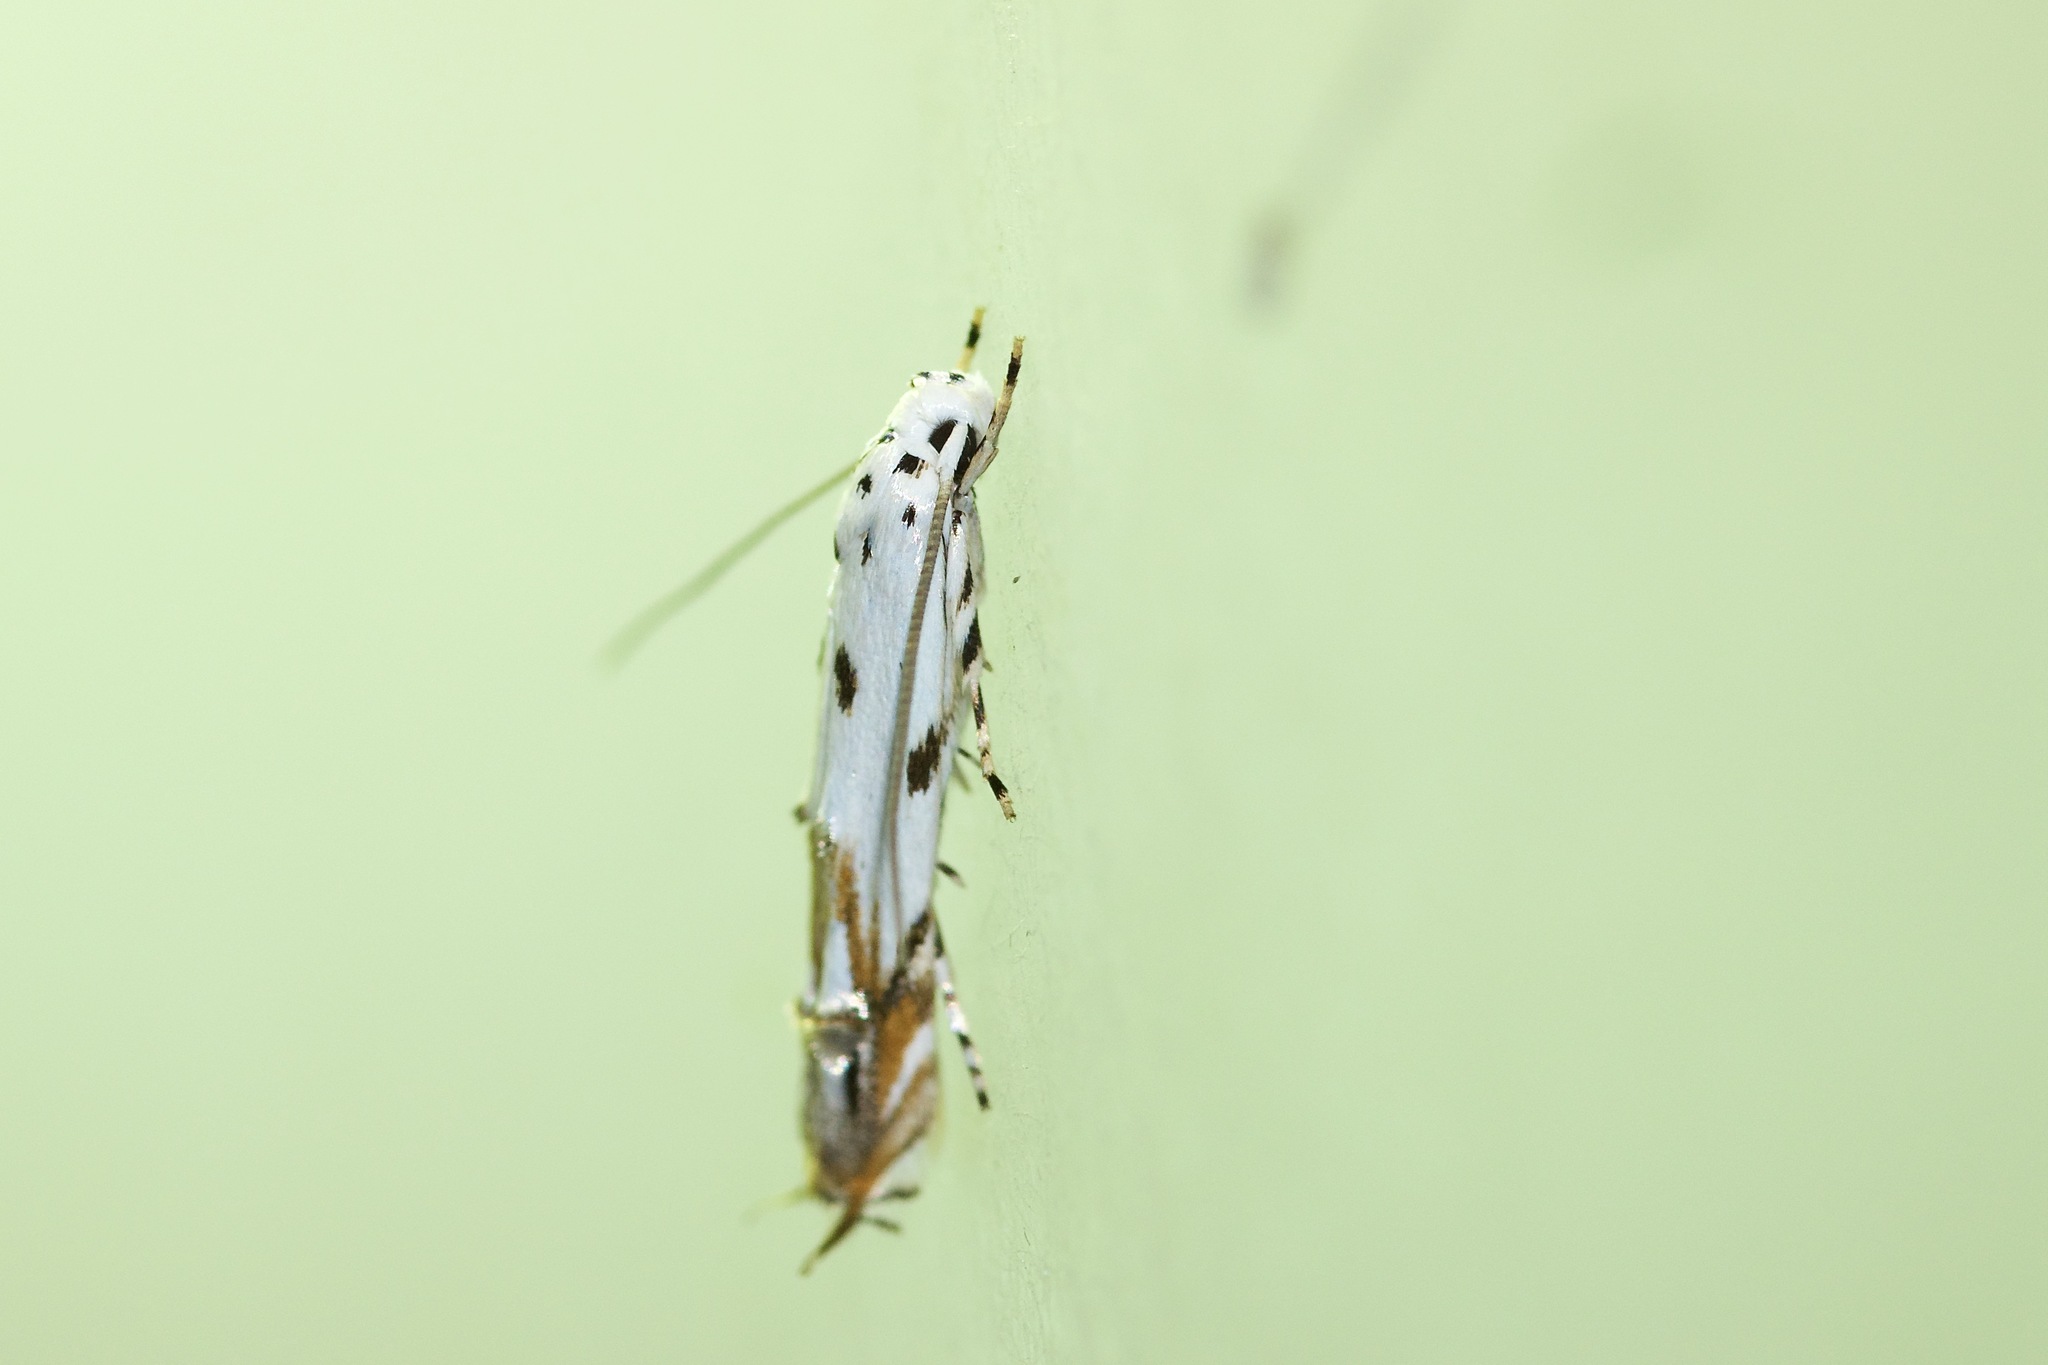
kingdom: Animalia
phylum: Arthropoda
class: Insecta
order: Lepidoptera
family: Momphidae
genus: Mompha
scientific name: Mompha eloisella
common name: Red-streaked mompha moth
